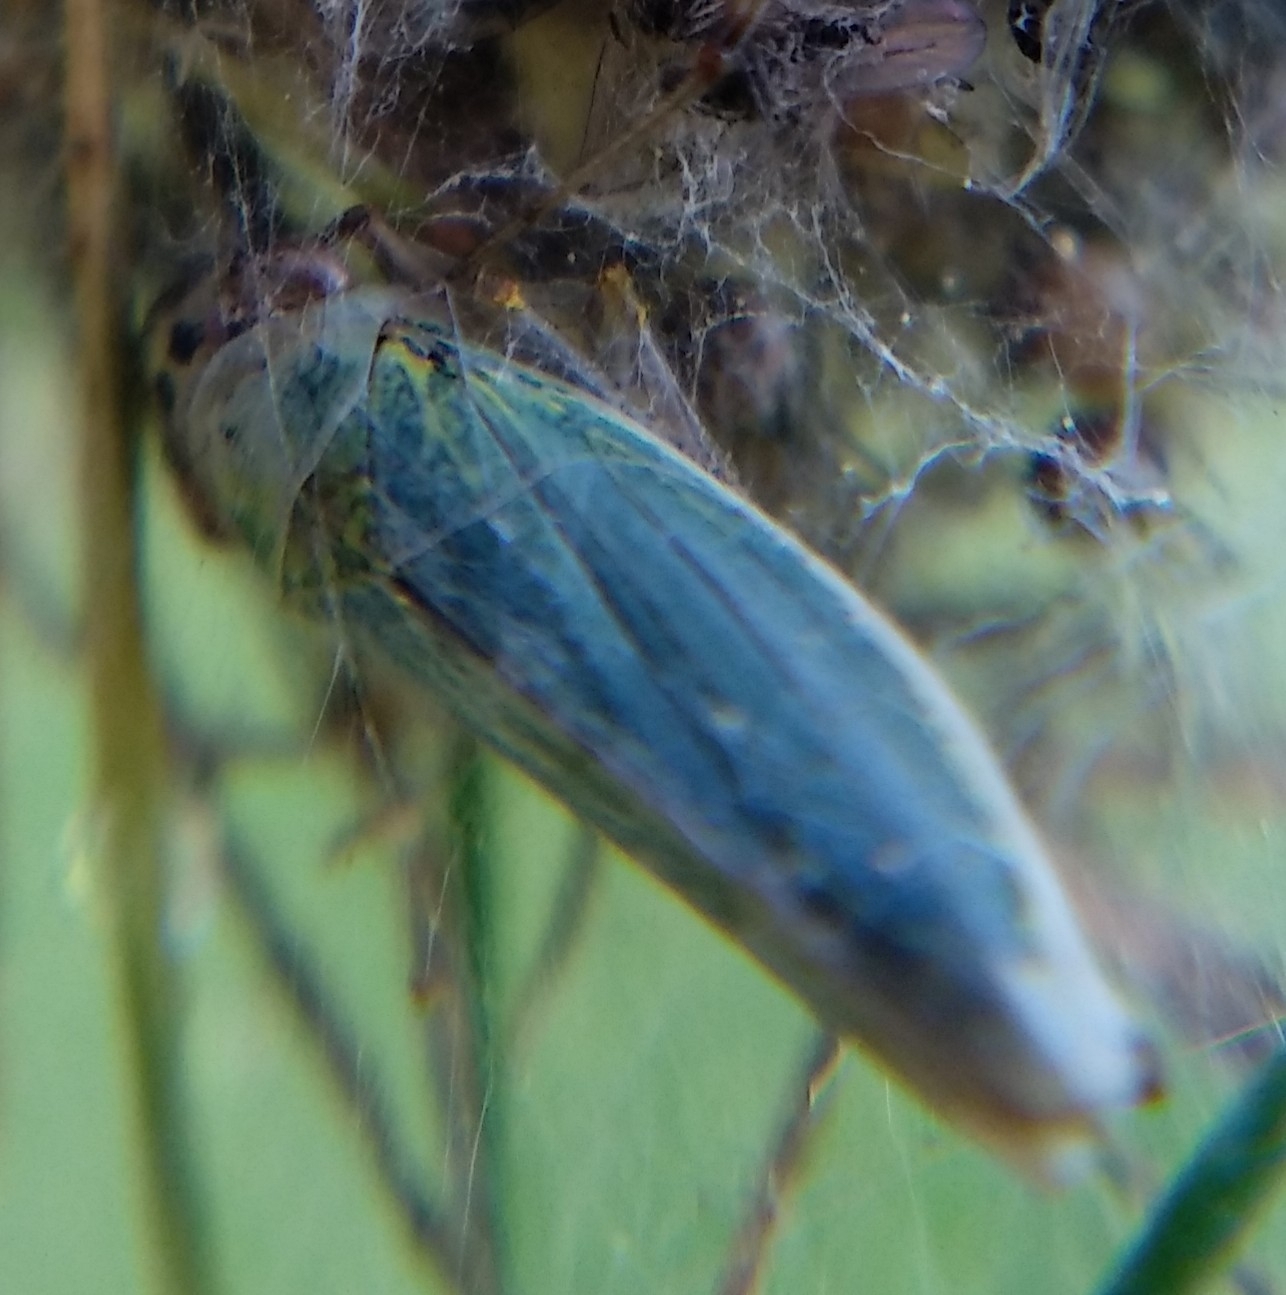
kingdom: Animalia
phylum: Arthropoda
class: Insecta
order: Hemiptera
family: Cicadellidae
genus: Cicadella
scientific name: Cicadella viridis
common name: Leafhopper
